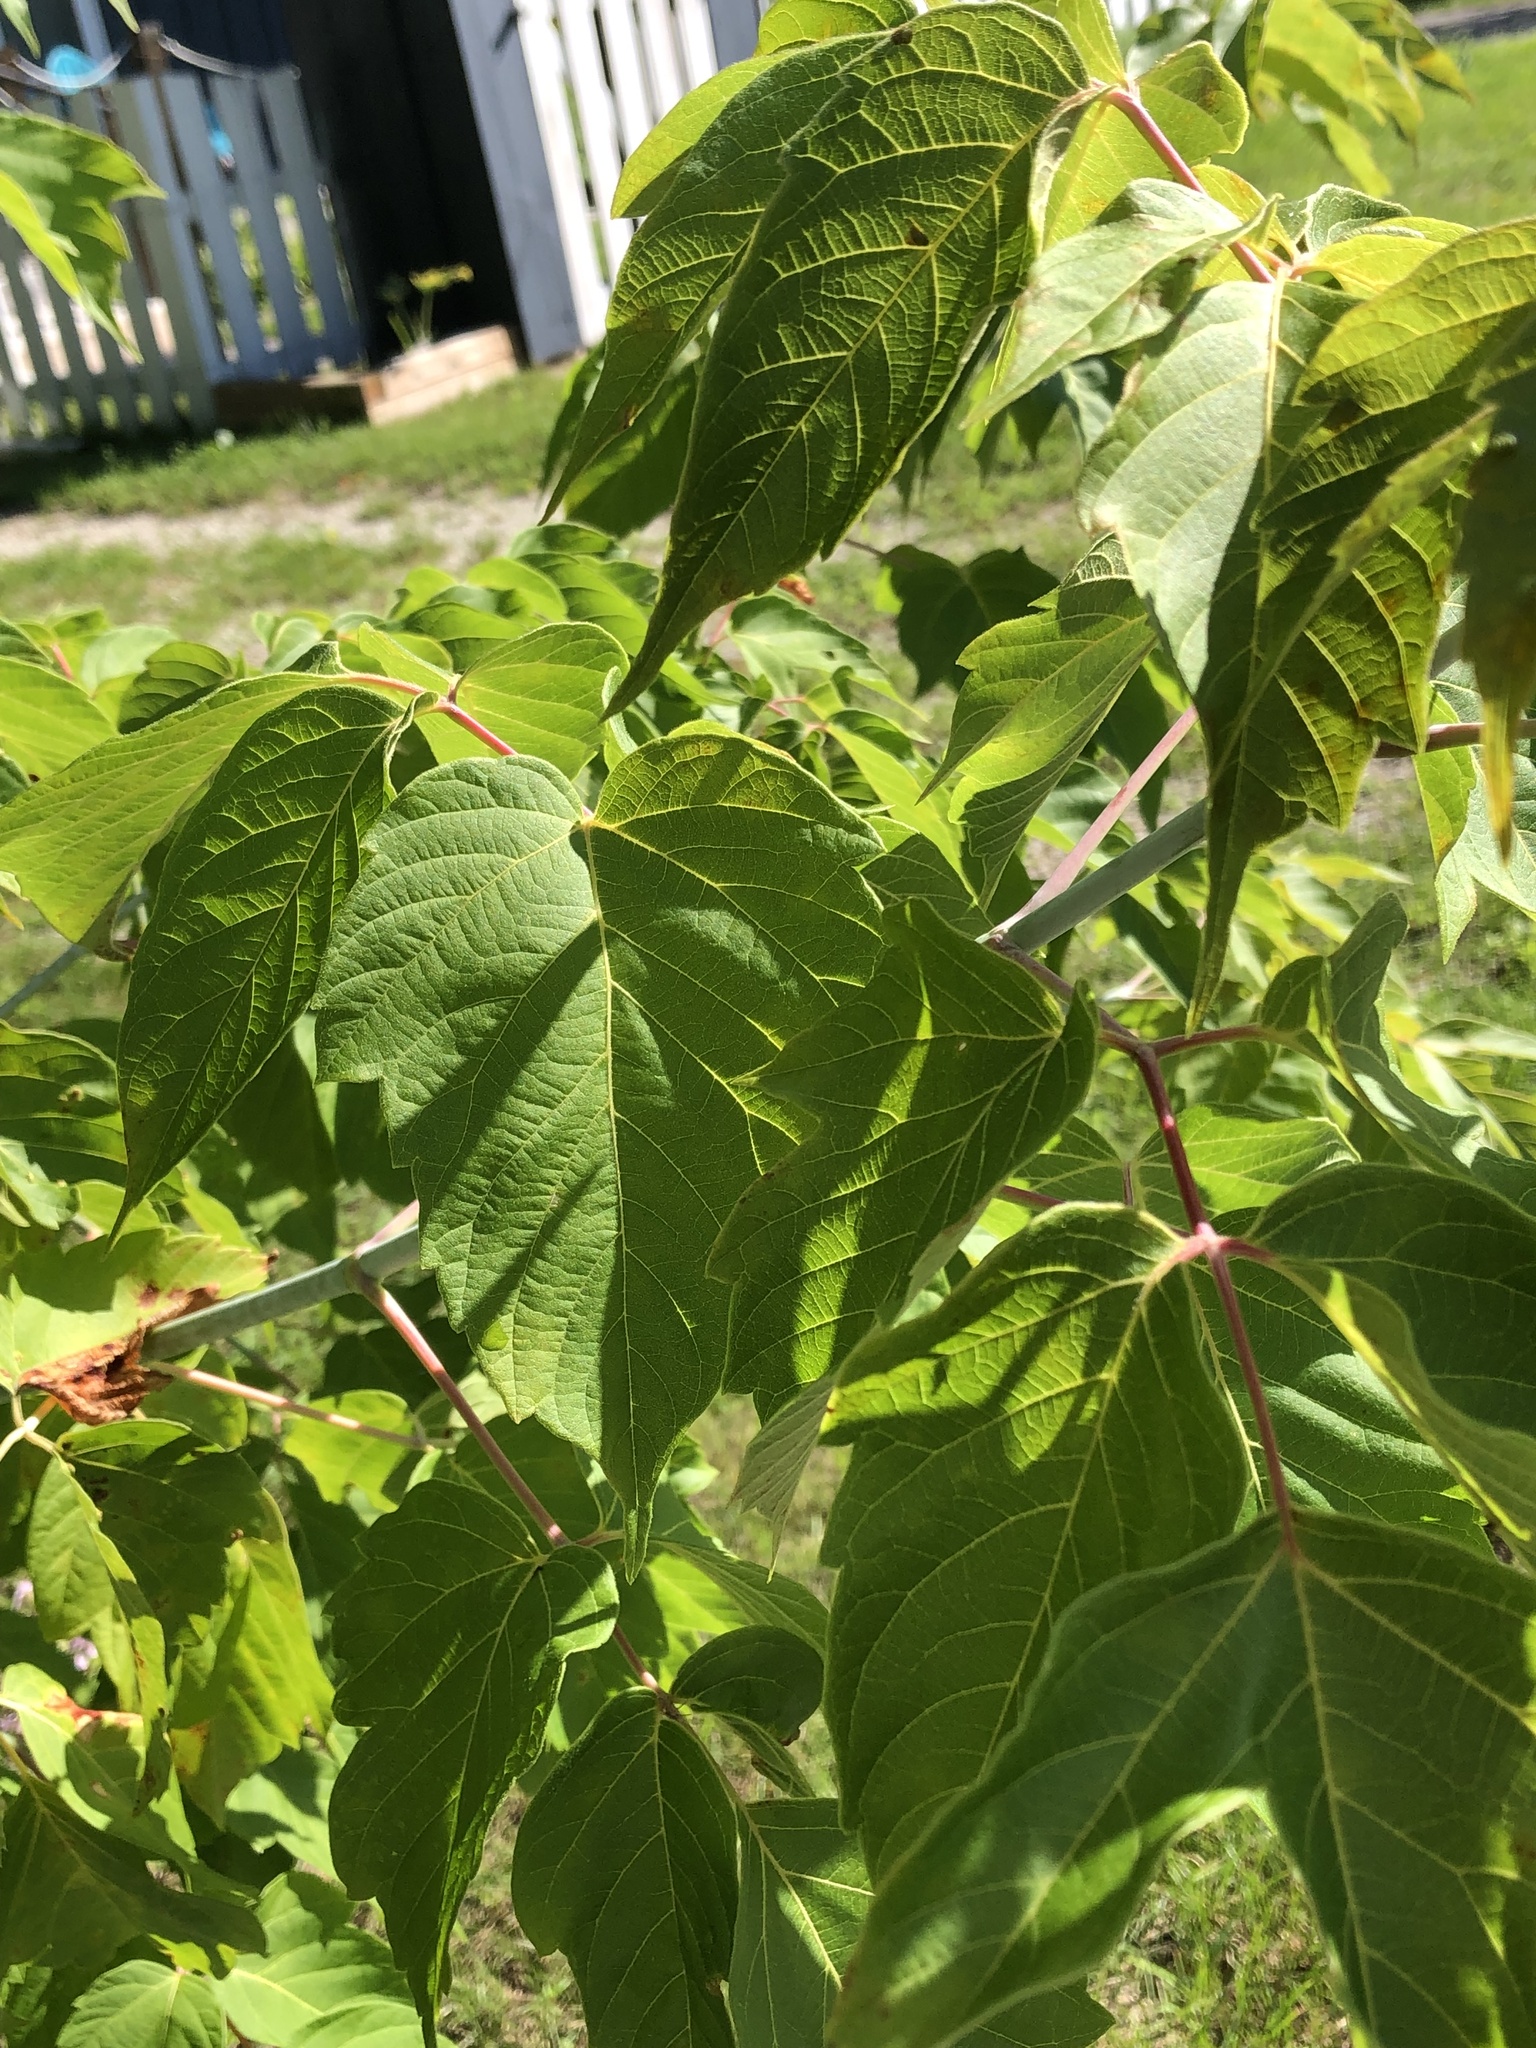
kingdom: Plantae
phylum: Tracheophyta
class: Magnoliopsida
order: Sapindales
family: Sapindaceae
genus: Acer
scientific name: Acer negundo
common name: Ashleaf maple
